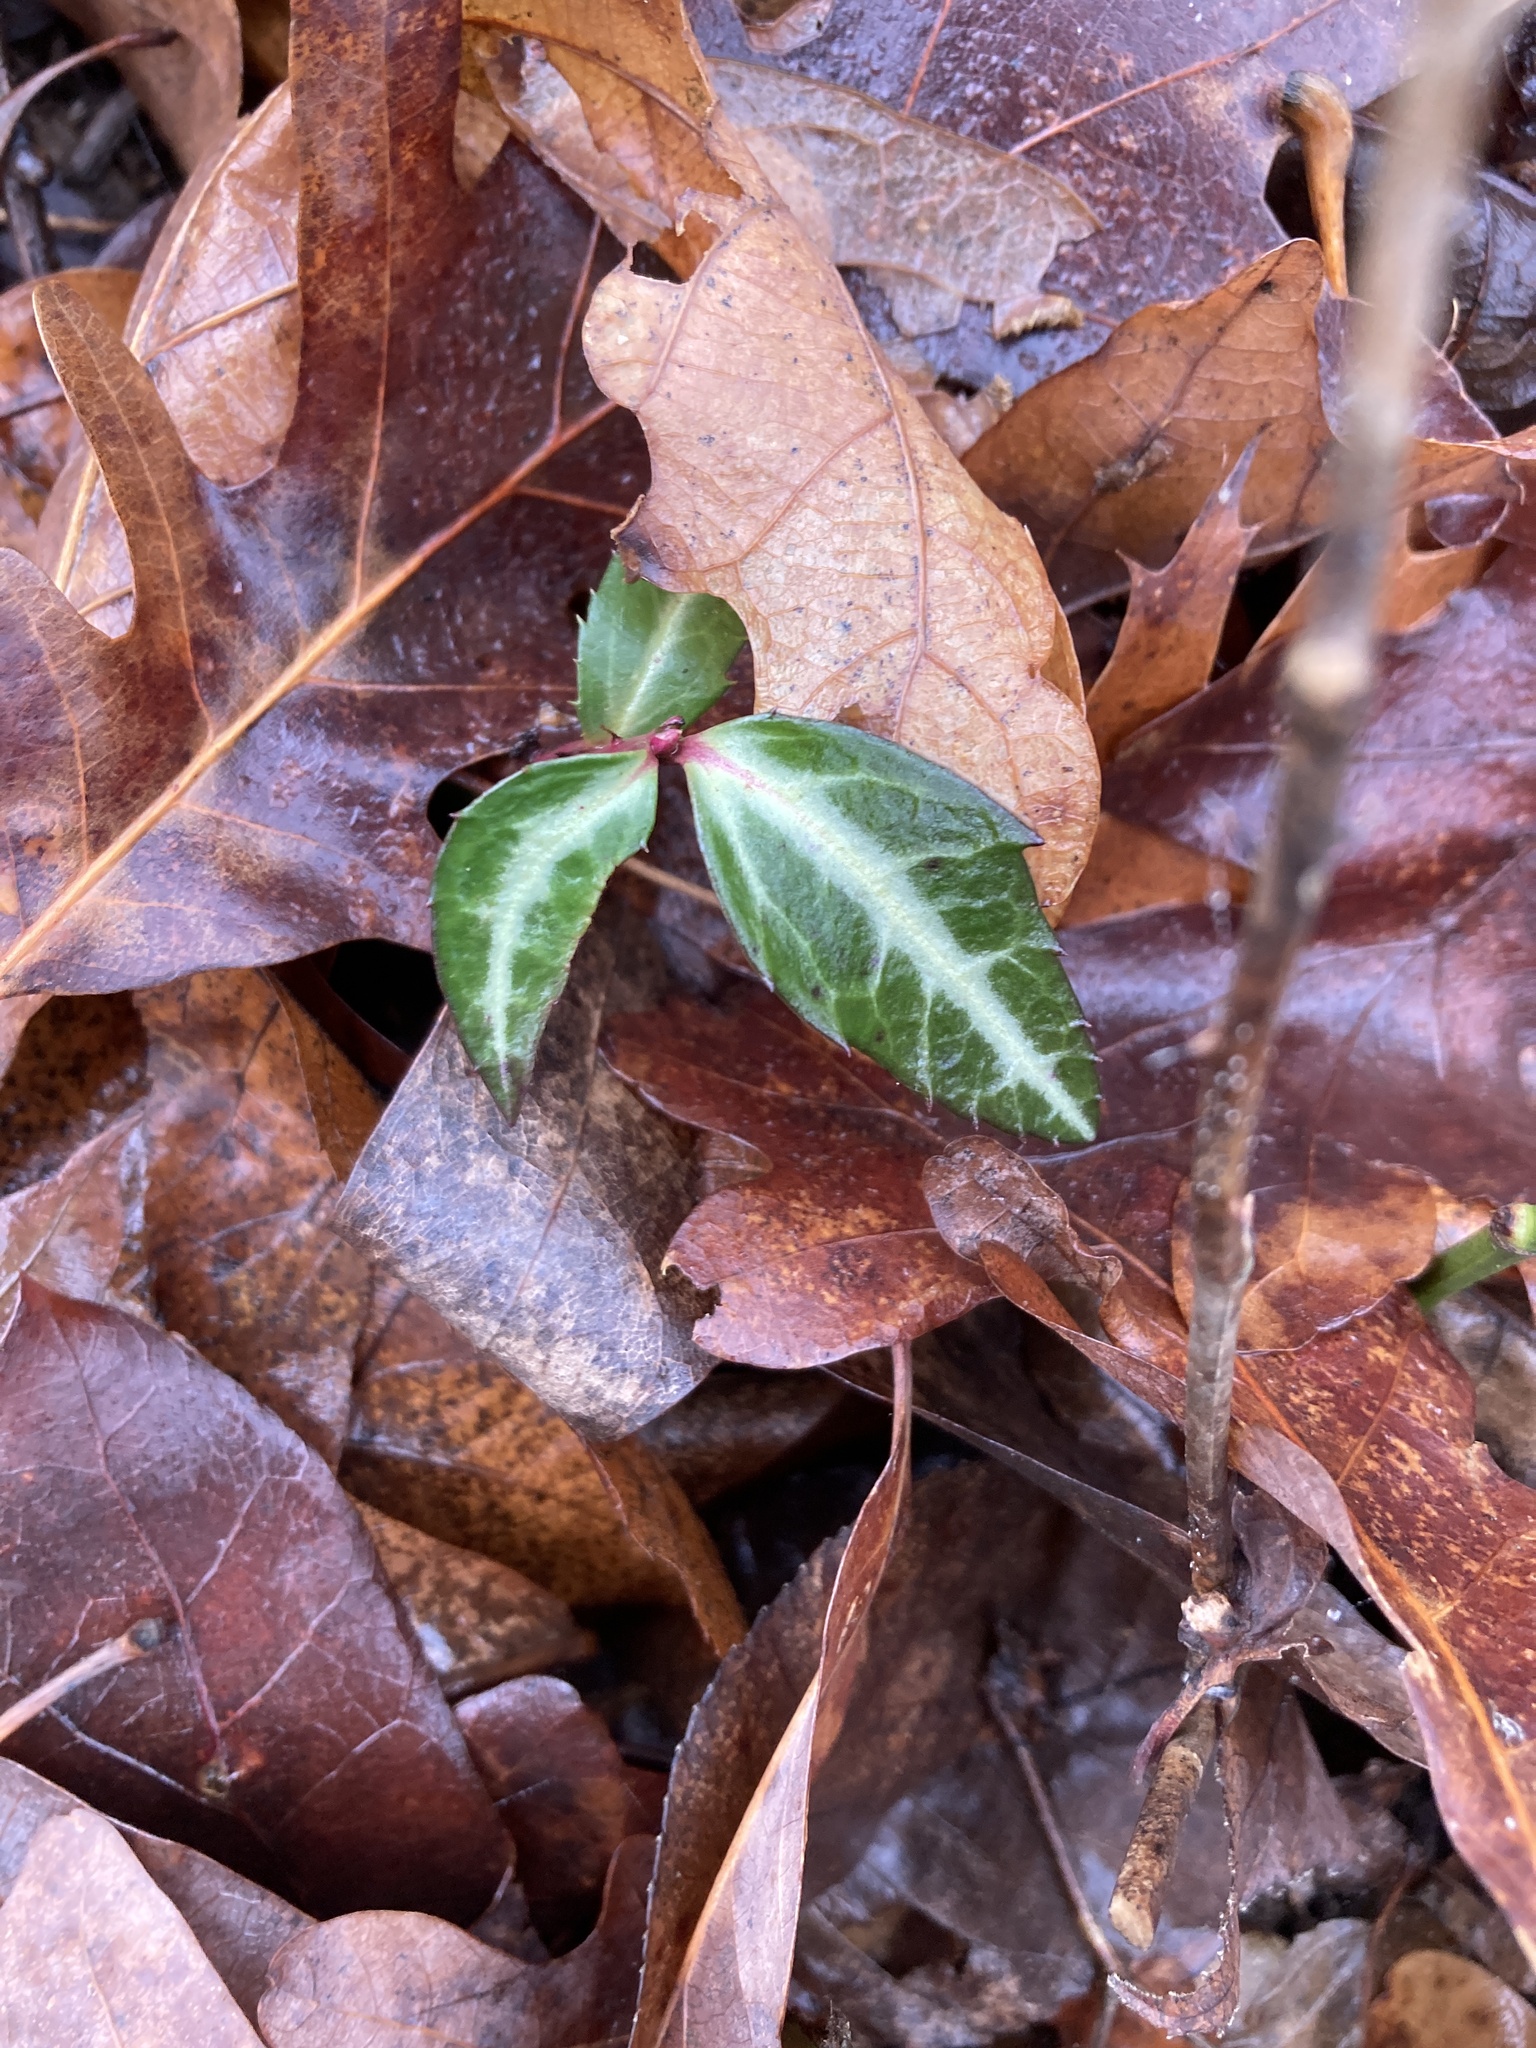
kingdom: Plantae
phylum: Tracheophyta
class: Magnoliopsida
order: Ericales
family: Ericaceae
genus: Chimaphila
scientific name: Chimaphila maculata
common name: Spotted pipsissewa
